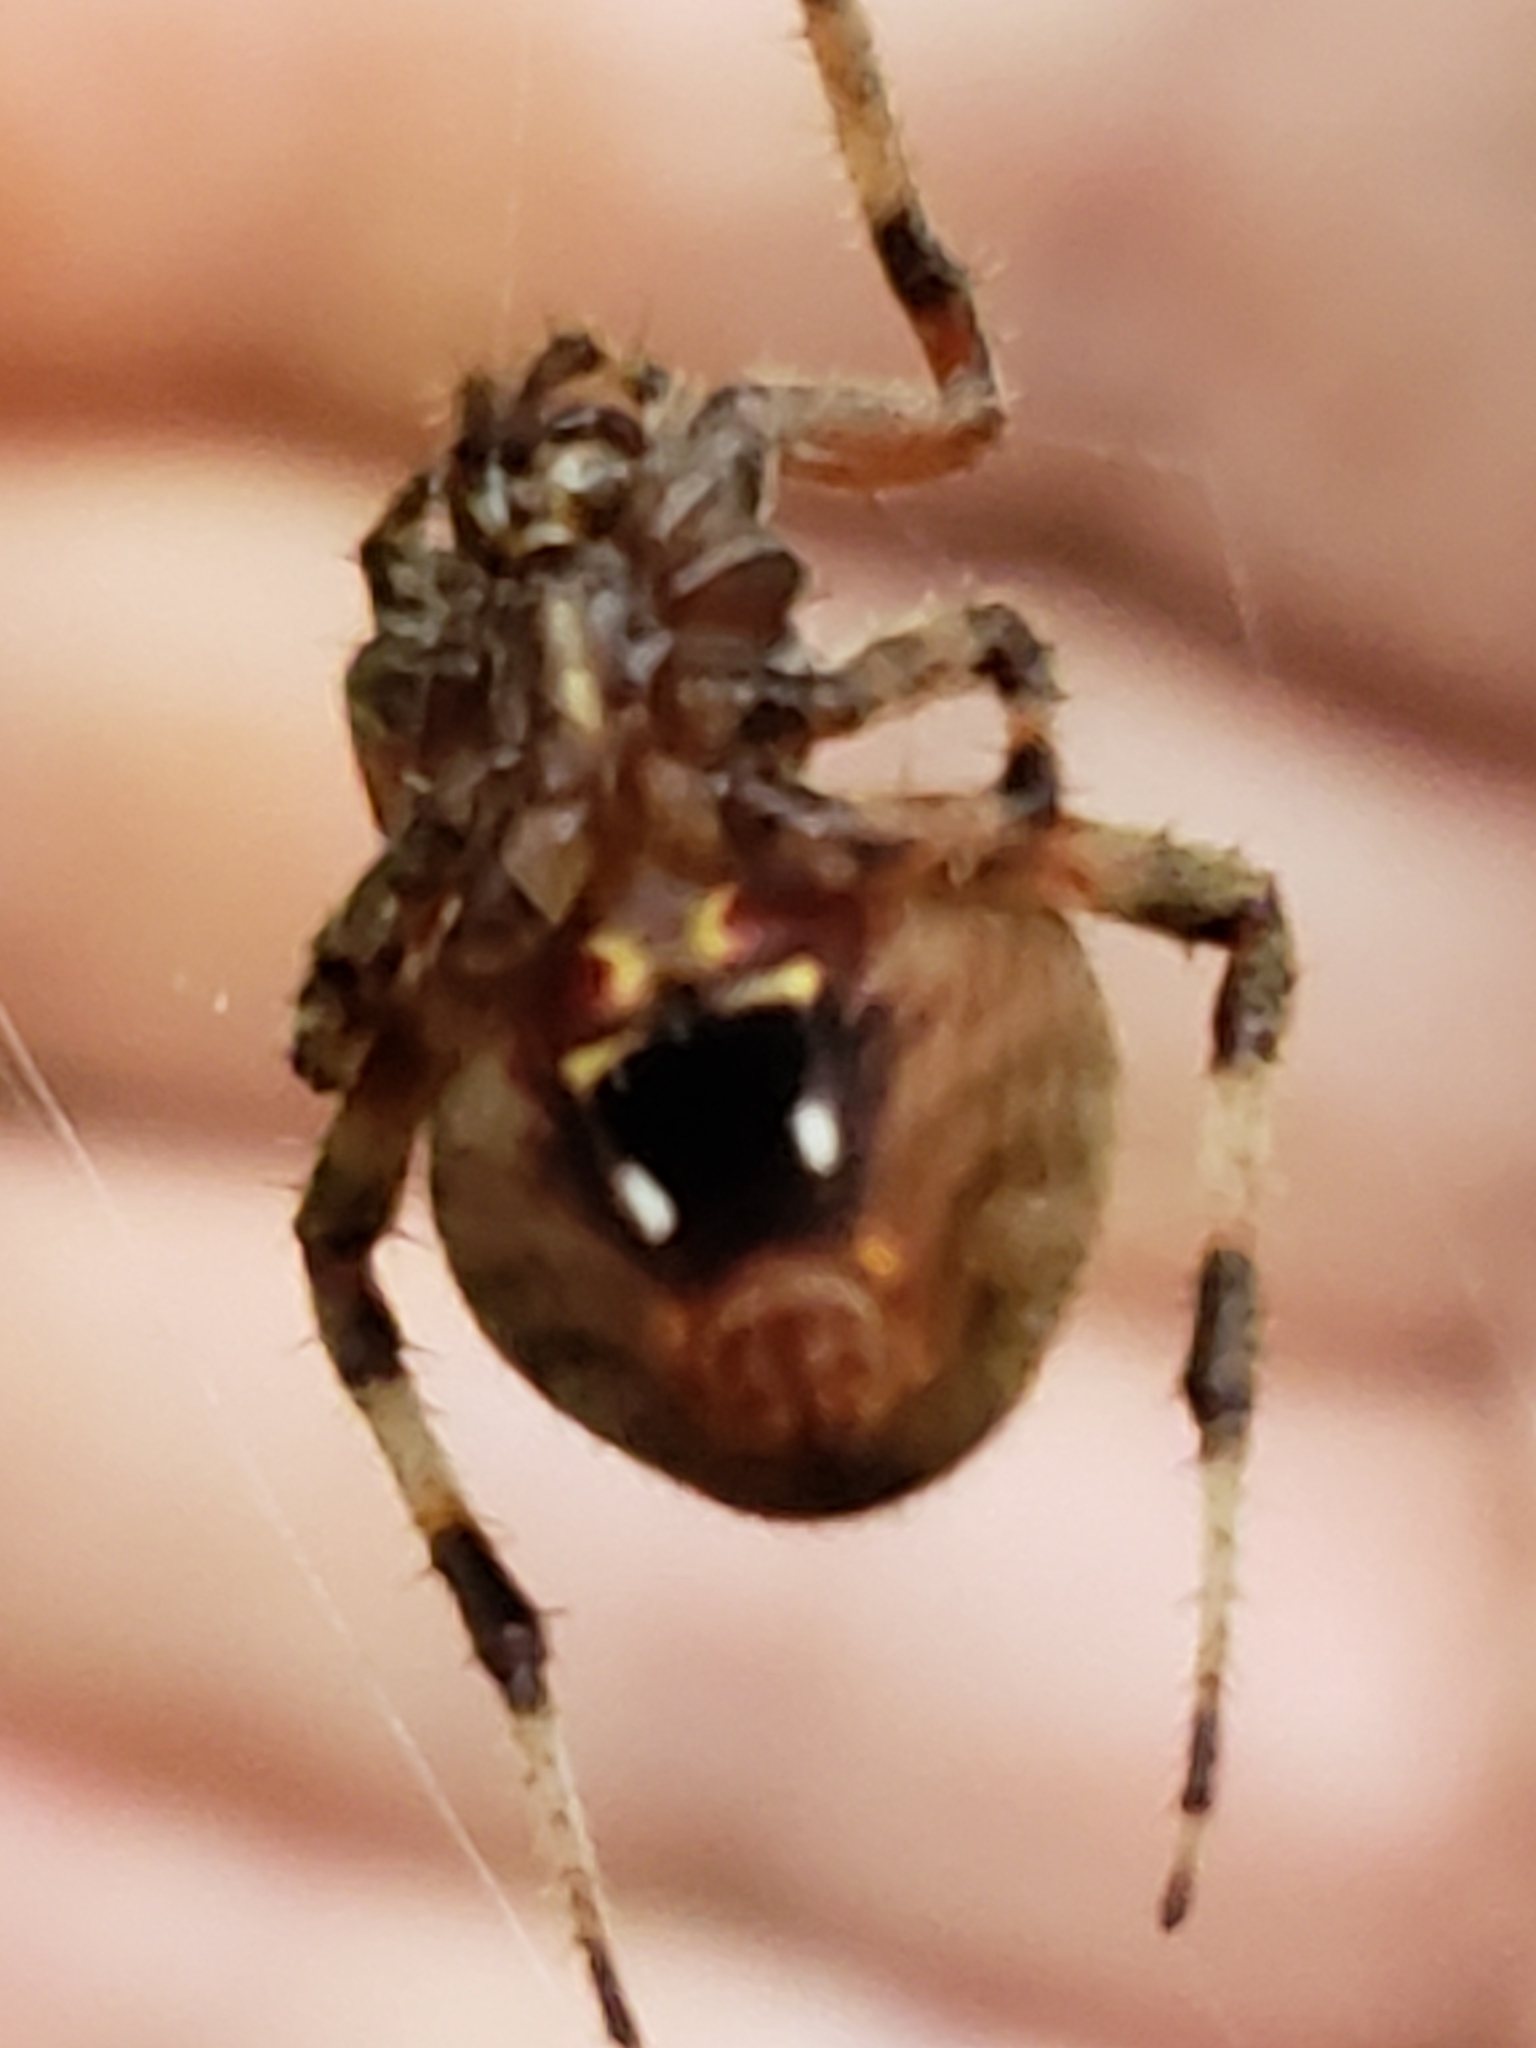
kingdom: Animalia
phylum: Arthropoda
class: Arachnida
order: Araneae
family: Araneidae
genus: Neoscona
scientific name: Neoscona crucifera
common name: Spotted orbweaver
